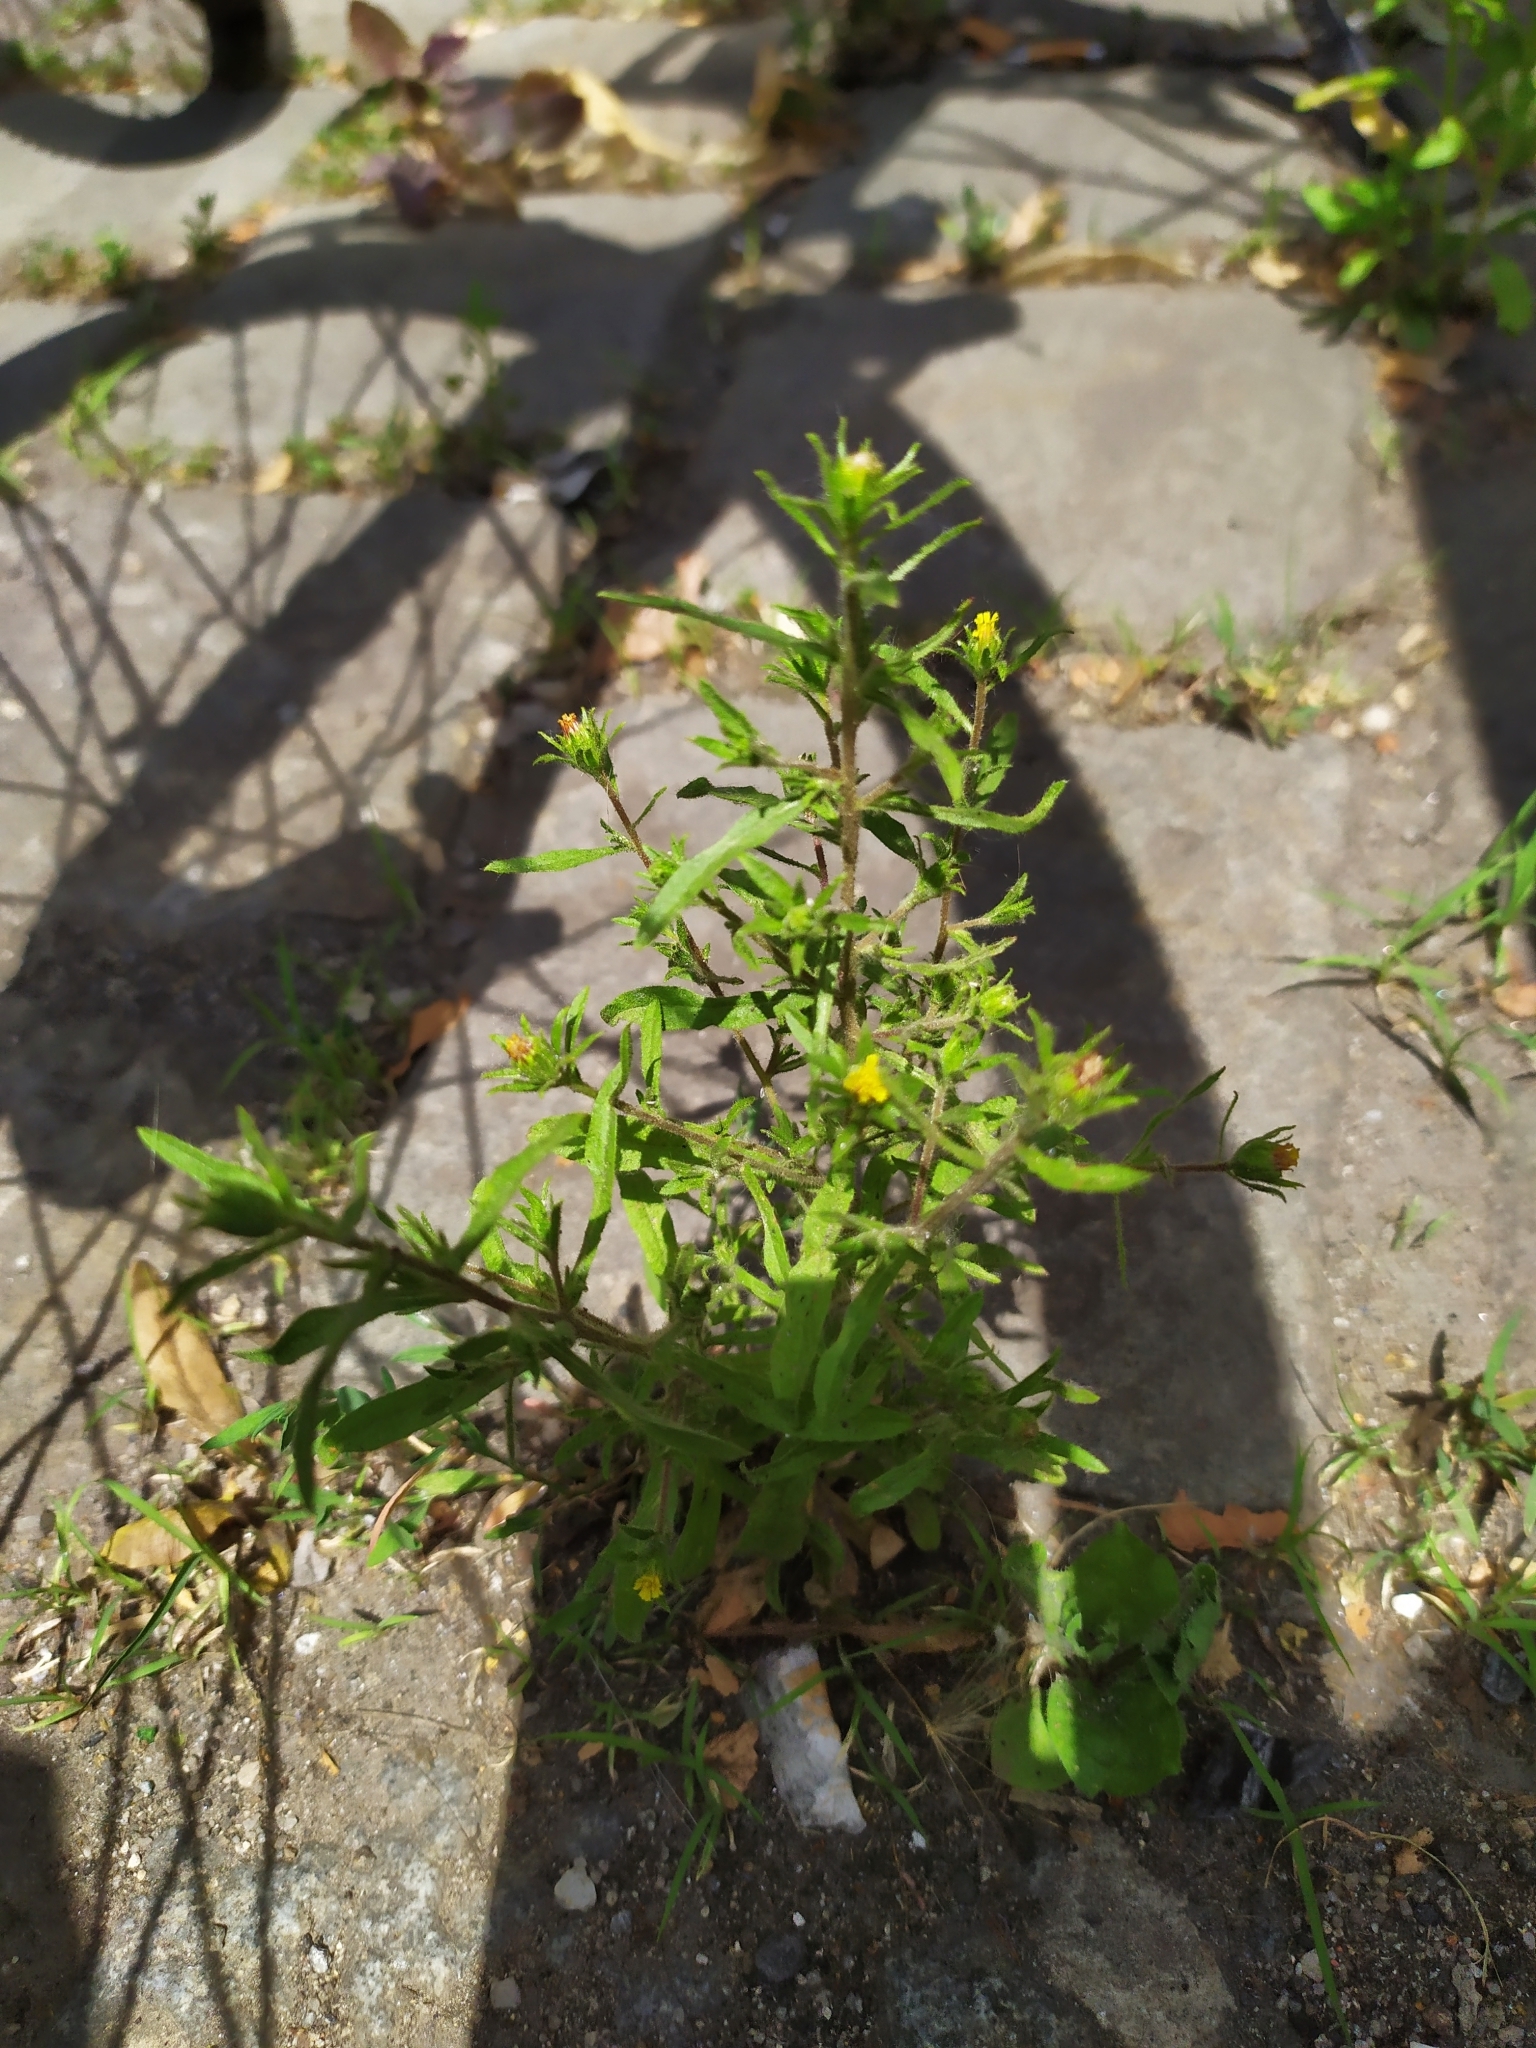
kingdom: Plantae
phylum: Tracheophyta
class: Magnoliopsida
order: Asterales
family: Asteraceae
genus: Dittrichia
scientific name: Dittrichia graveolens
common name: Stinking fleabane
